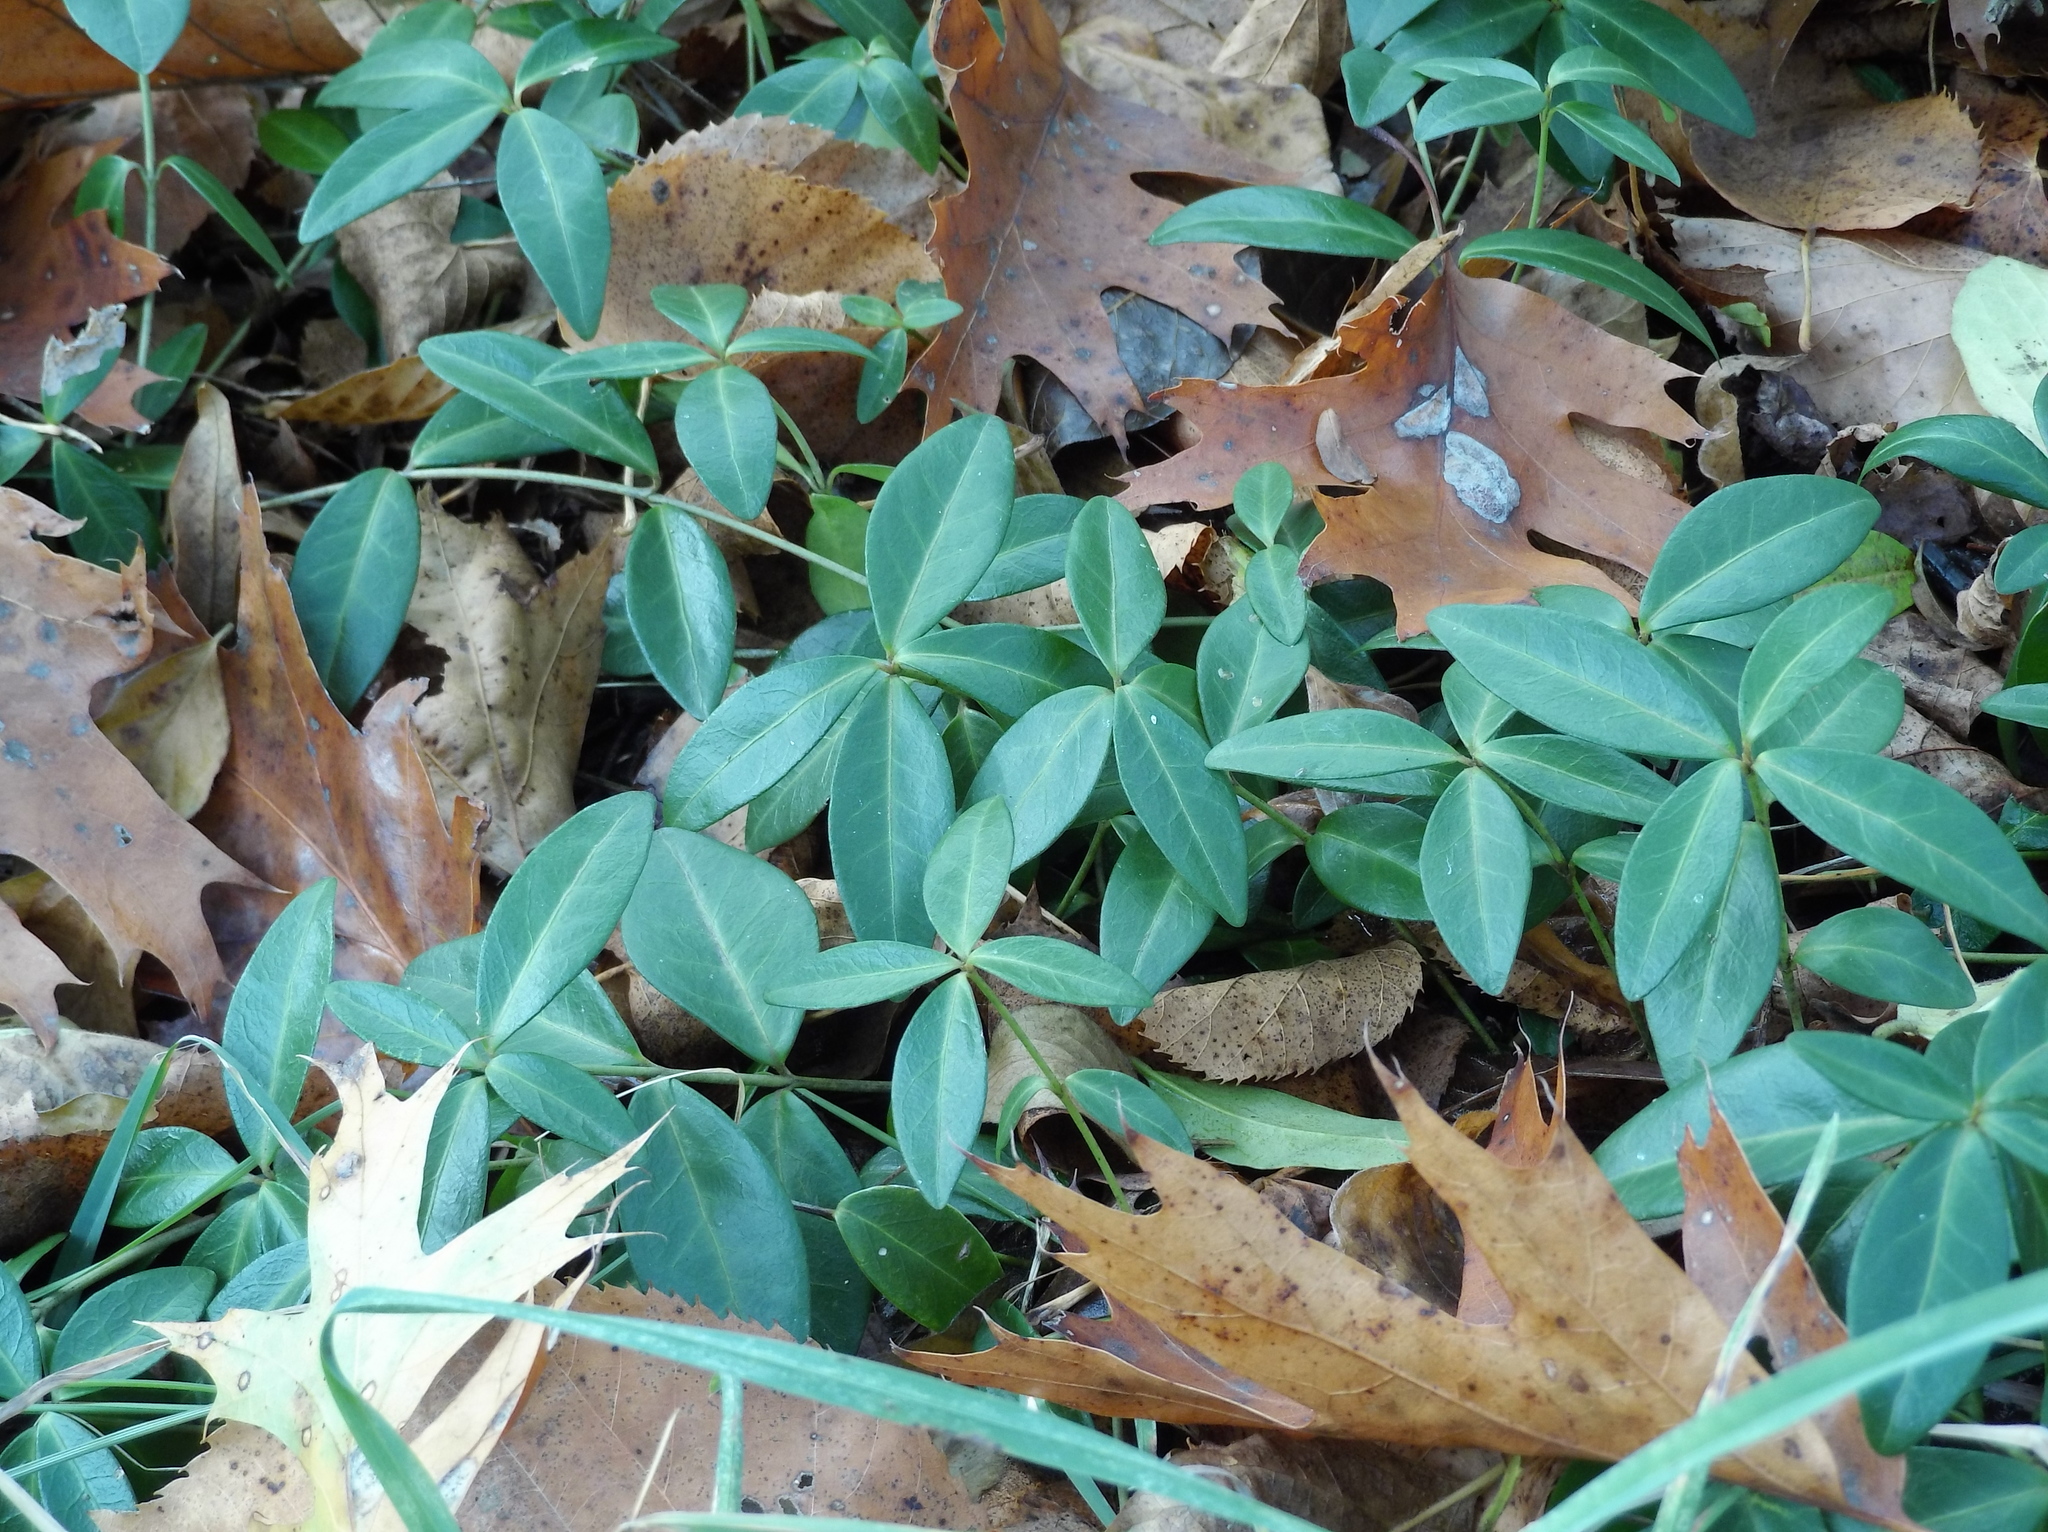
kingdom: Plantae
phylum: Tracheophyta
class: Magnoliopsida
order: Gentianales
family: Apocynaceae
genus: Vinca
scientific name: Vinca minor
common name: Lesser periwinkle
